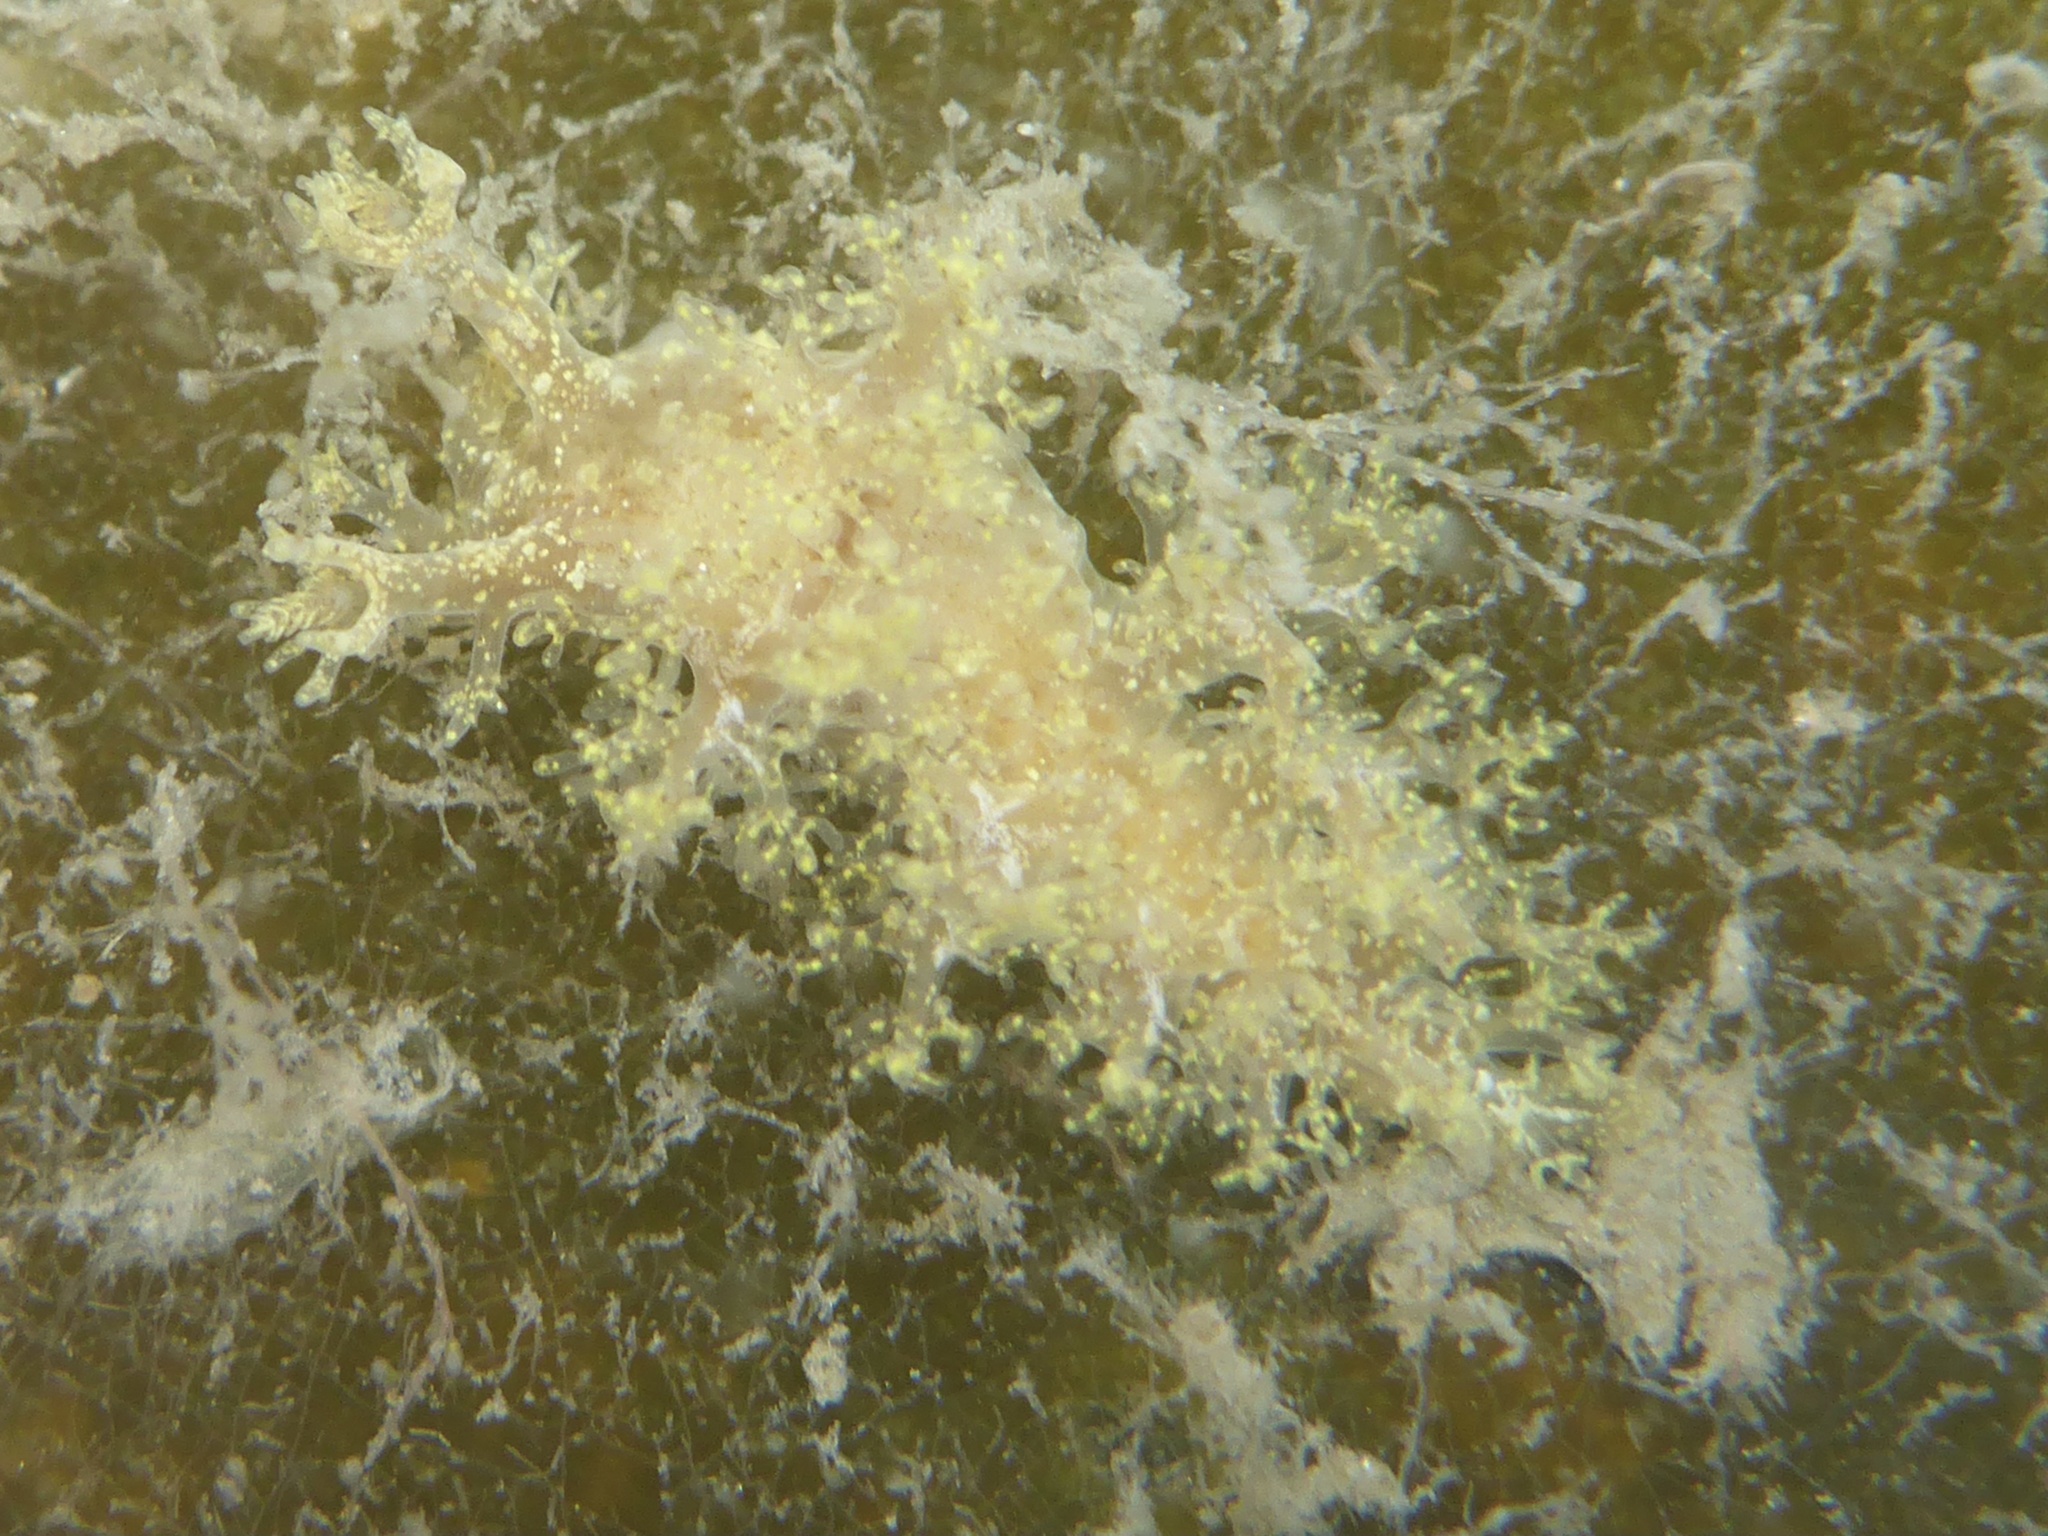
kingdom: Animalia
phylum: Mollusca
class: Gastropoda
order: Nudibranchia
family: Dendronotidae
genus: Dendronotus
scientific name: Dendronotus venustus
